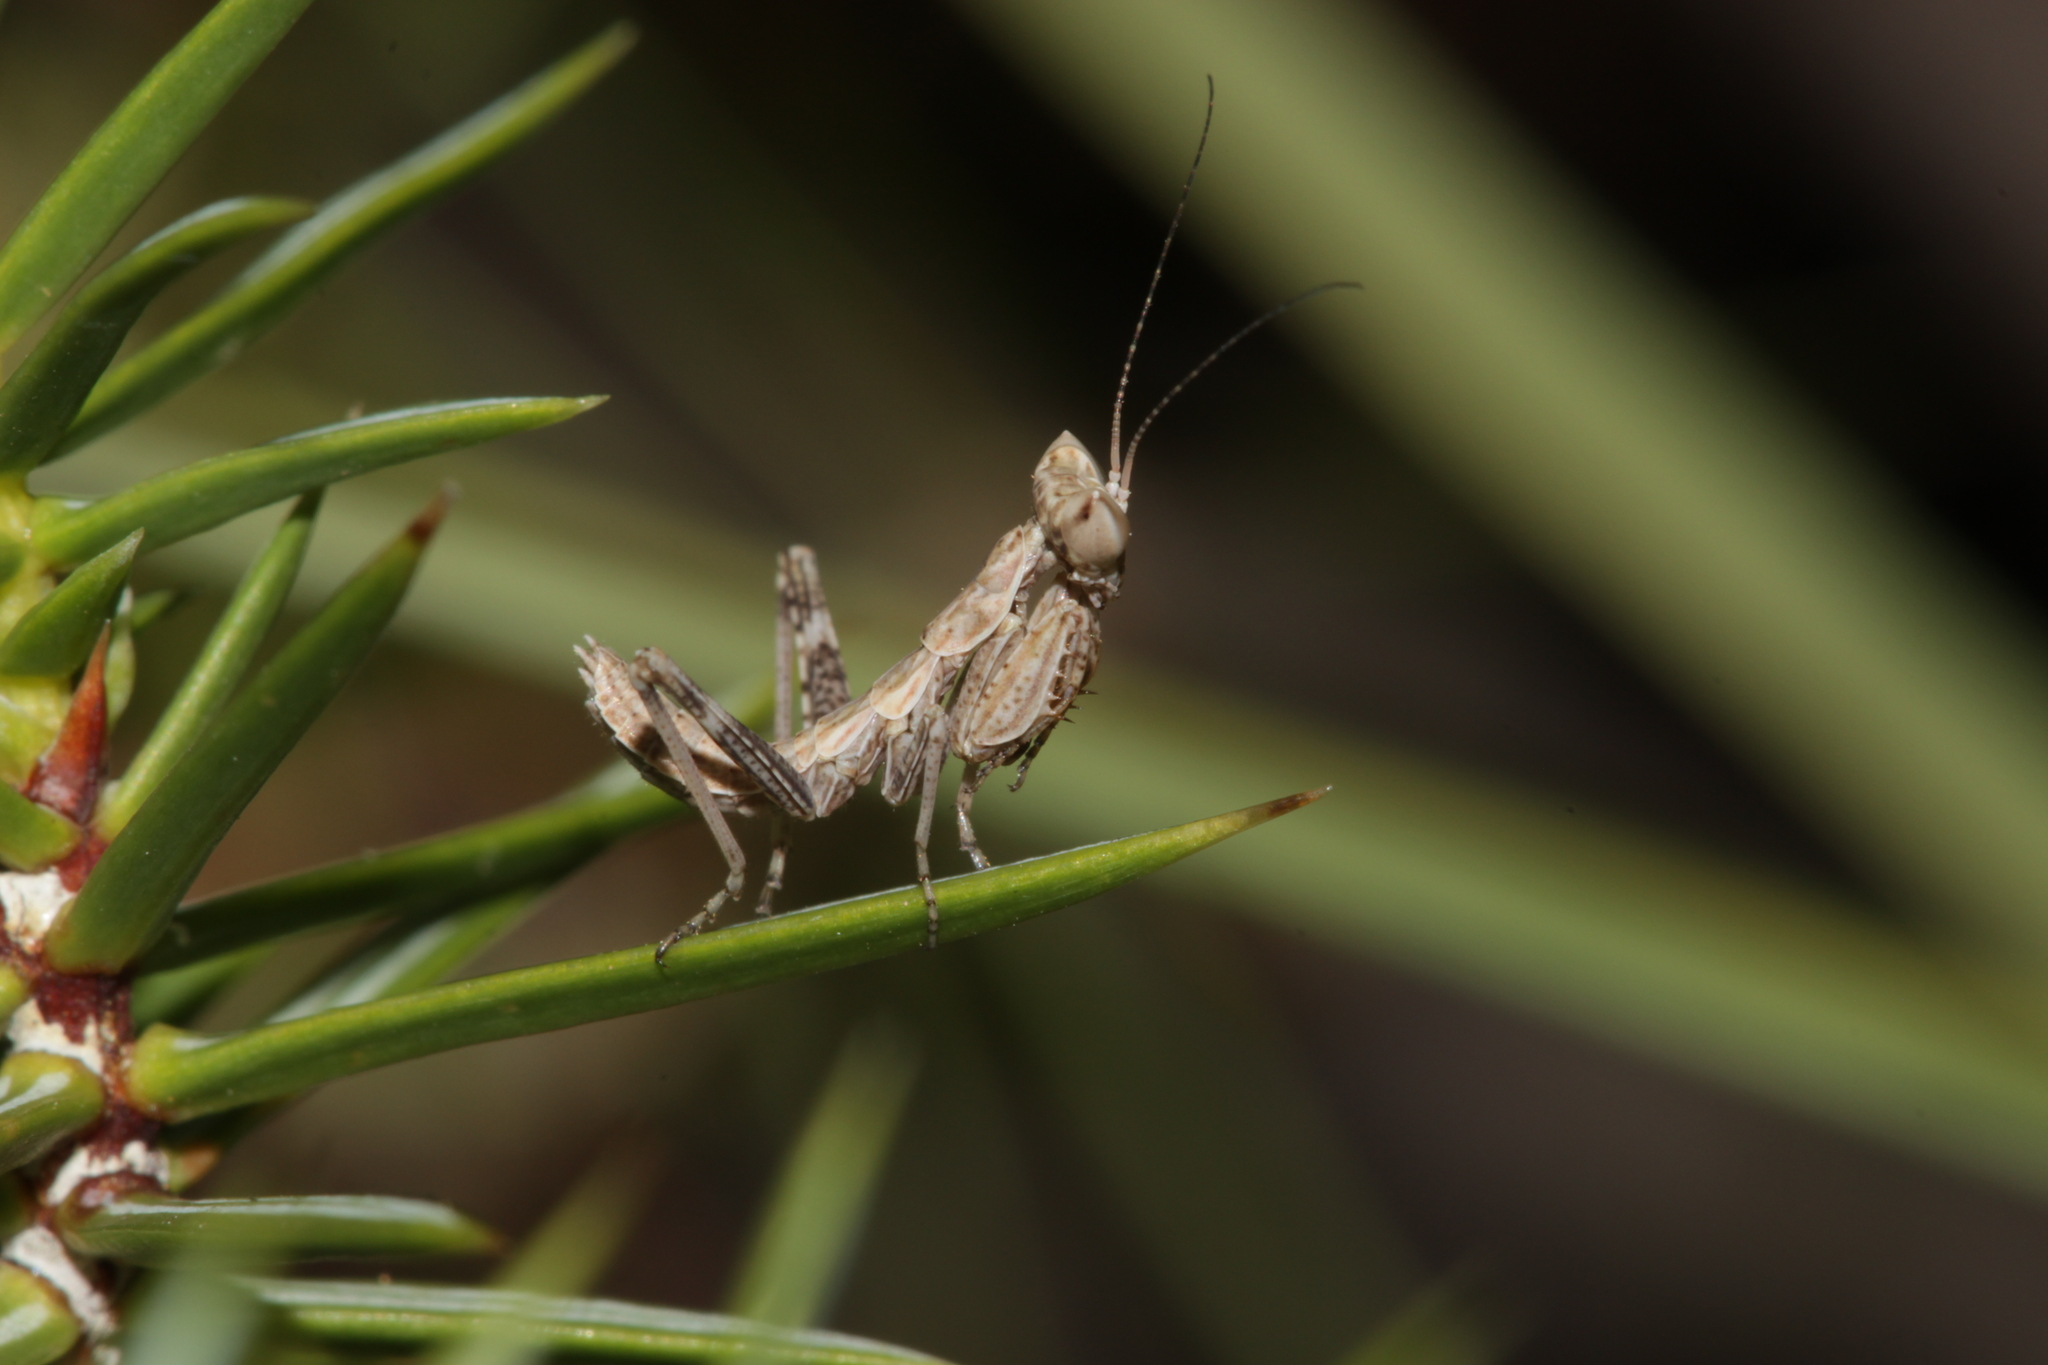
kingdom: Animalia
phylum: Arthropoda
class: Insecta
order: Mantodea
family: Amelidae
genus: Ameles
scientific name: Ameles spallanzania
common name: European dwarf mantis
